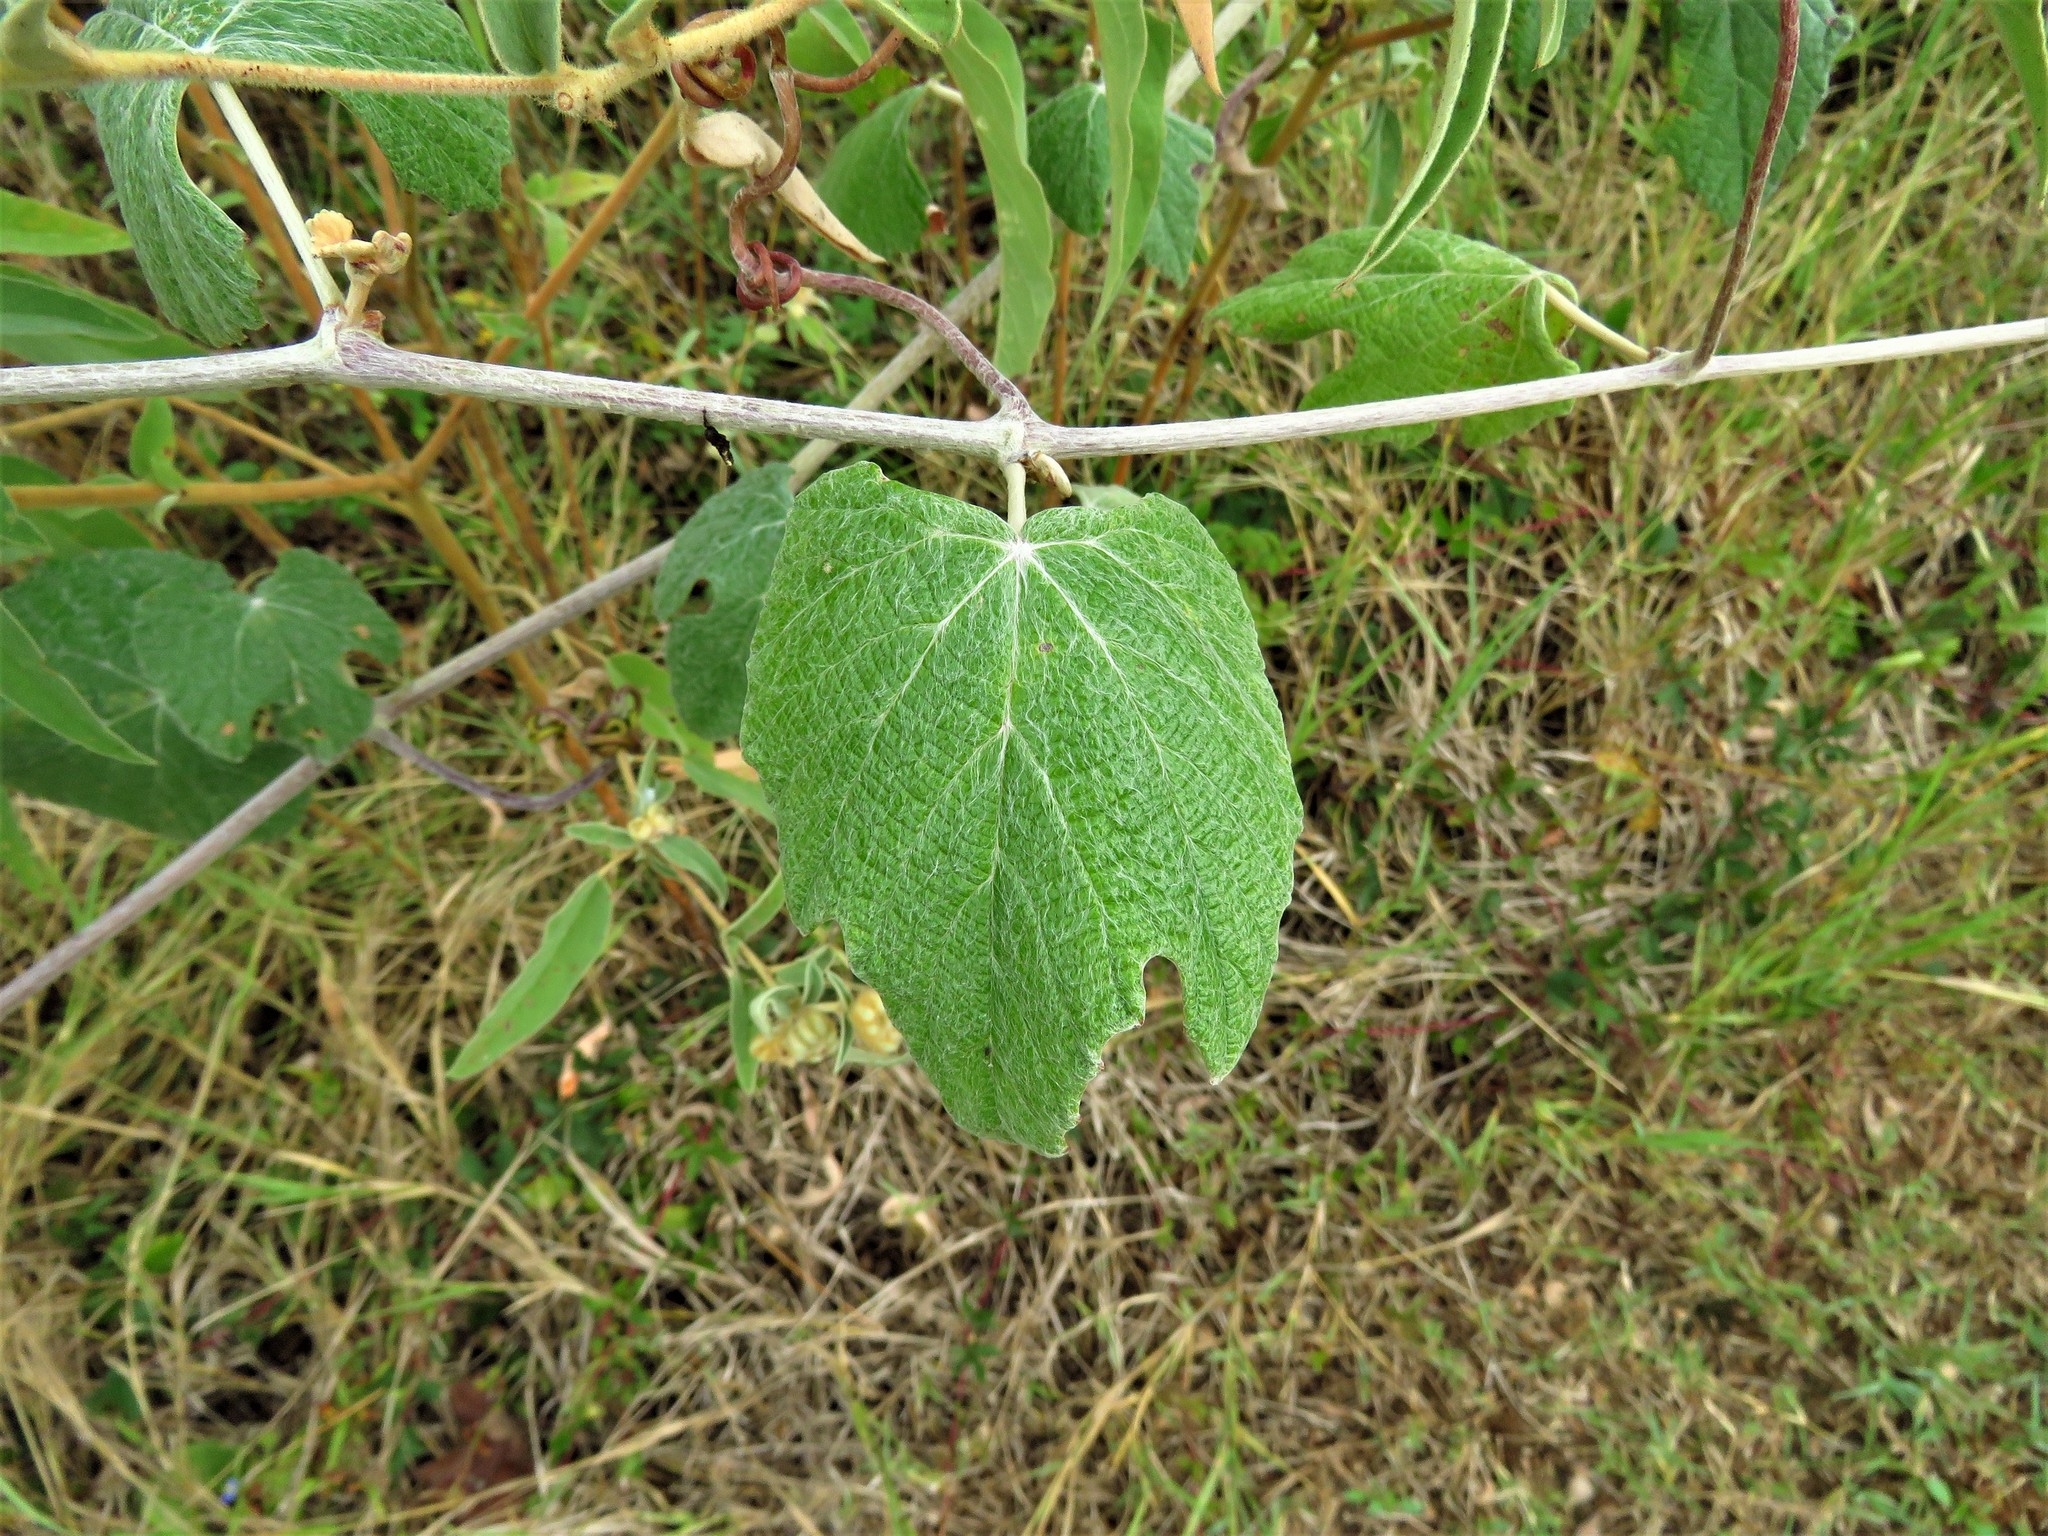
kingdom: Plantae
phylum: Tracheophyta
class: Magnoliopsida
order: Vitales
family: Vitaceae
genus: Vitis
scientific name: Vitis mustangensis
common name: Mustang grape
